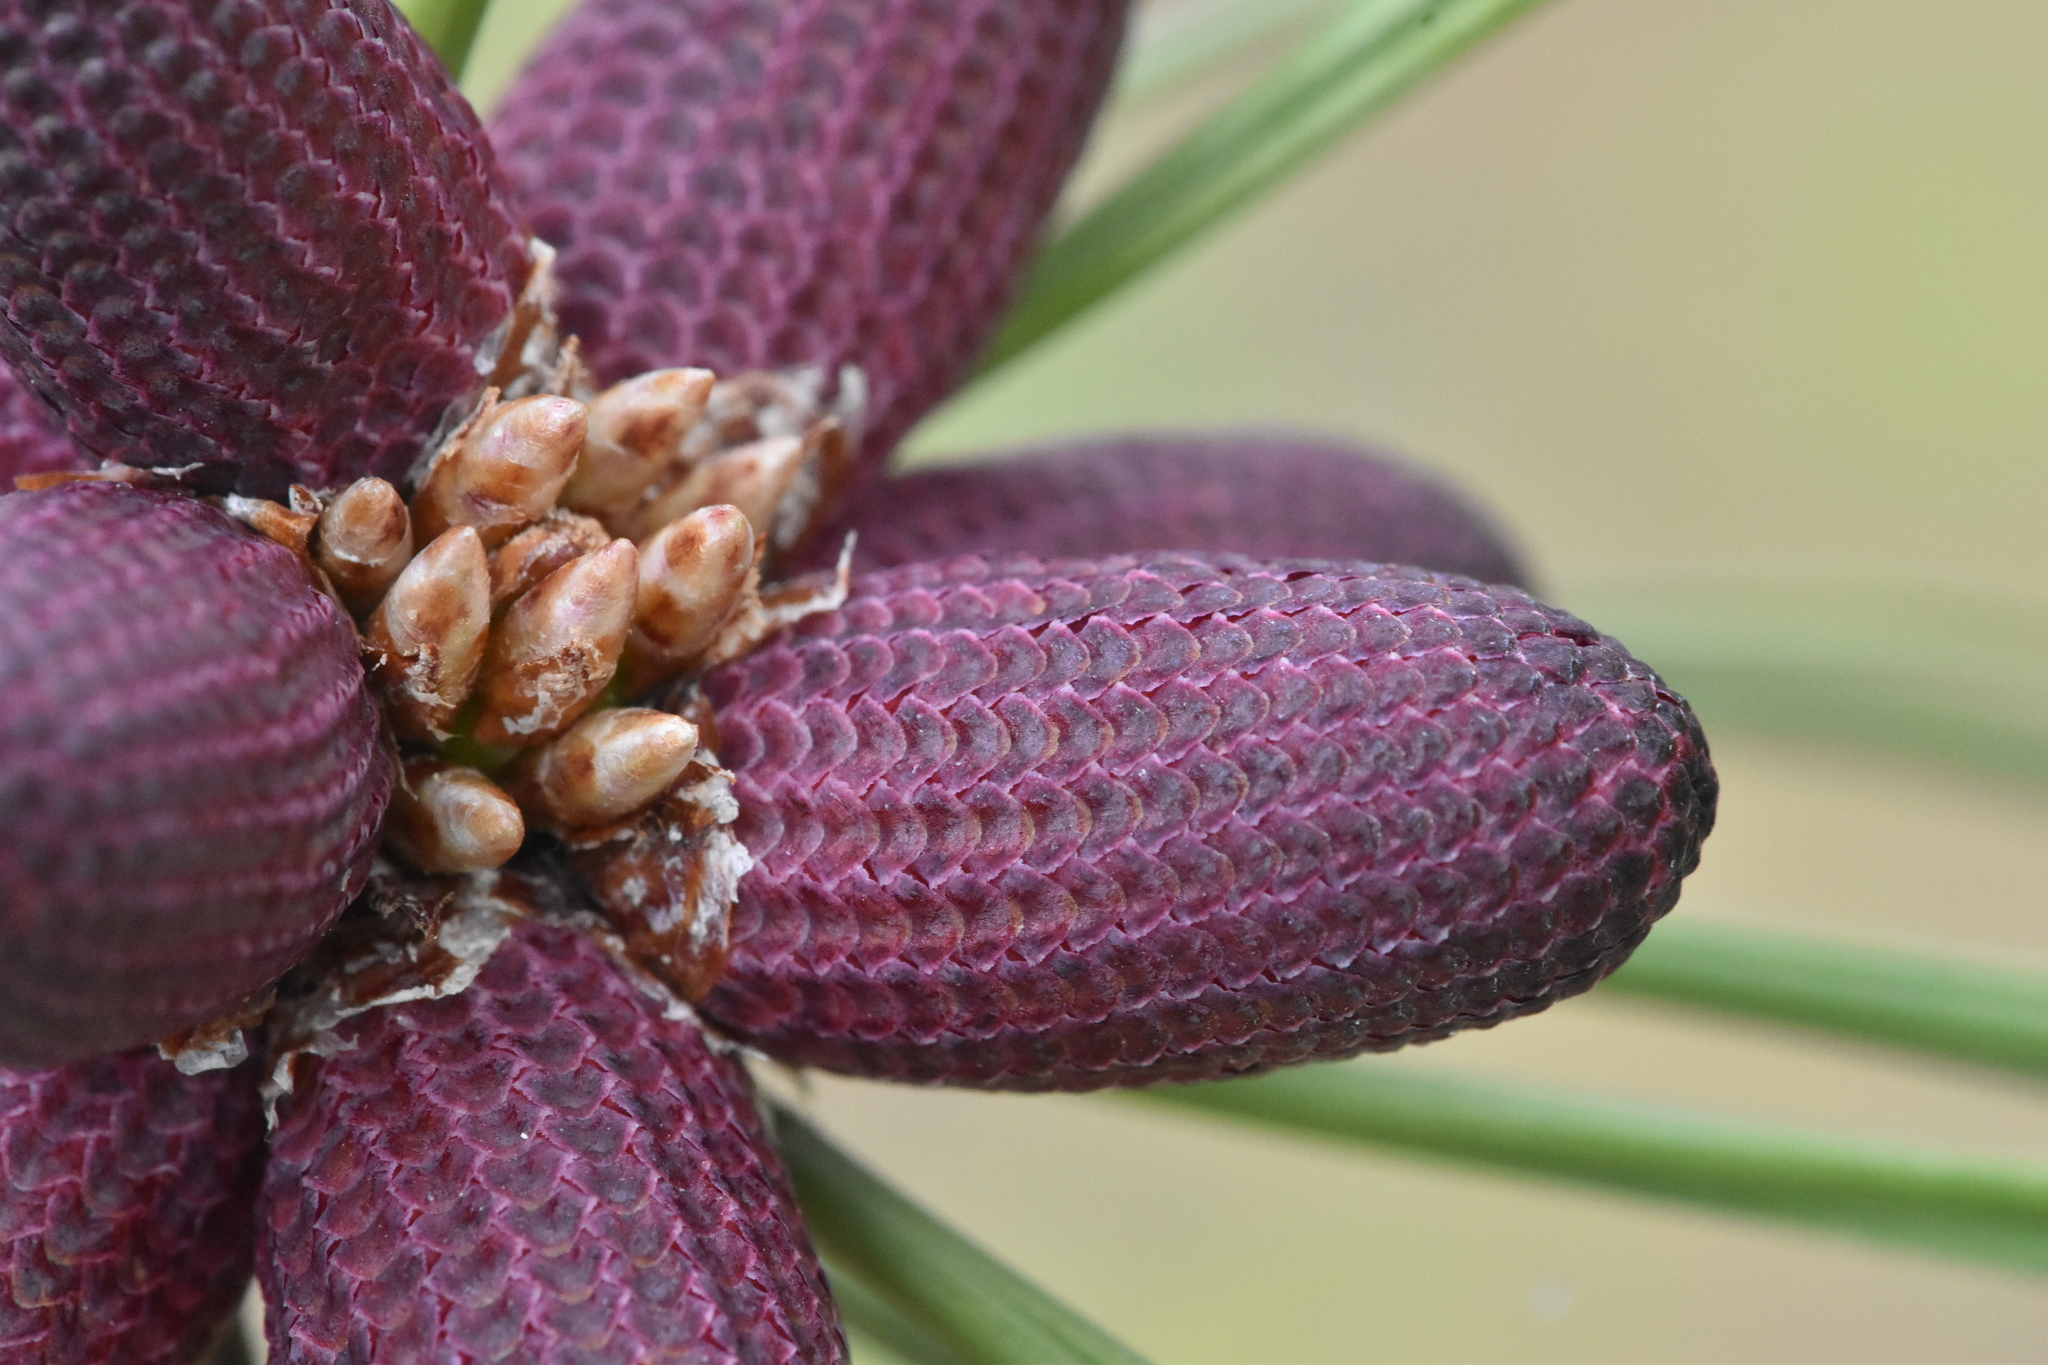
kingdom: Plantae
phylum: Tracheophyta
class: Pinopsida
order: Pinales
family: Pinaceae
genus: Pinus
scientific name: Pinus ponderosa
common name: Western yellow-pine
